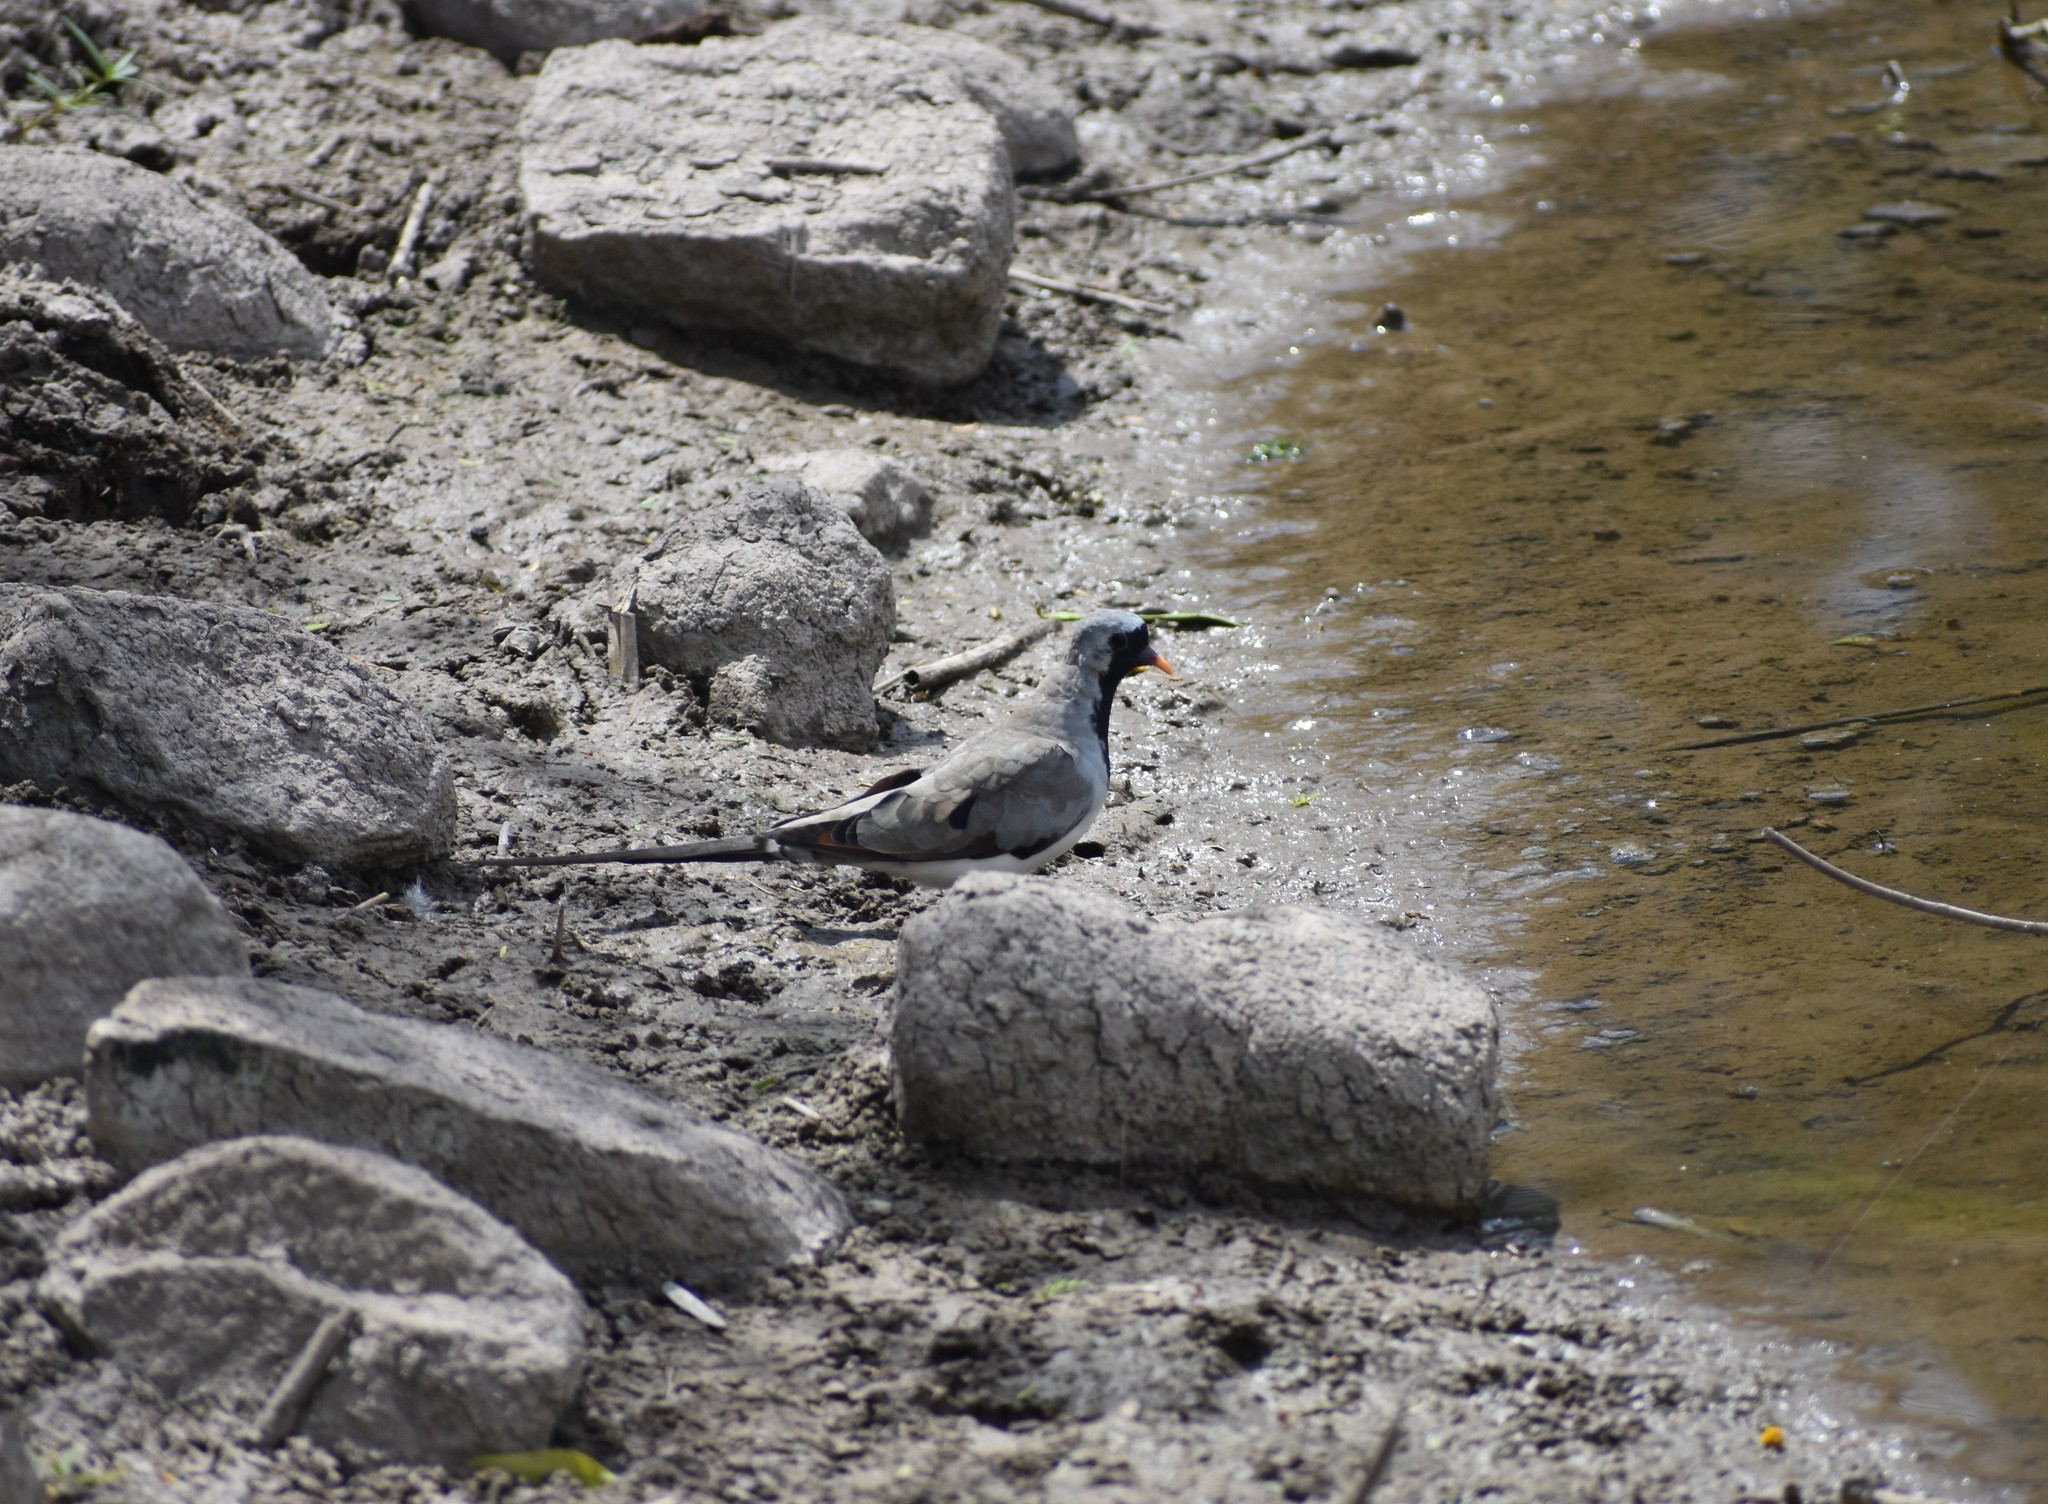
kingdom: Animalia
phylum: Chordata
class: Aves
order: Columbiformes
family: Columbidae
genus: Oena
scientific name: Oena capensis
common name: Namaqua dove
